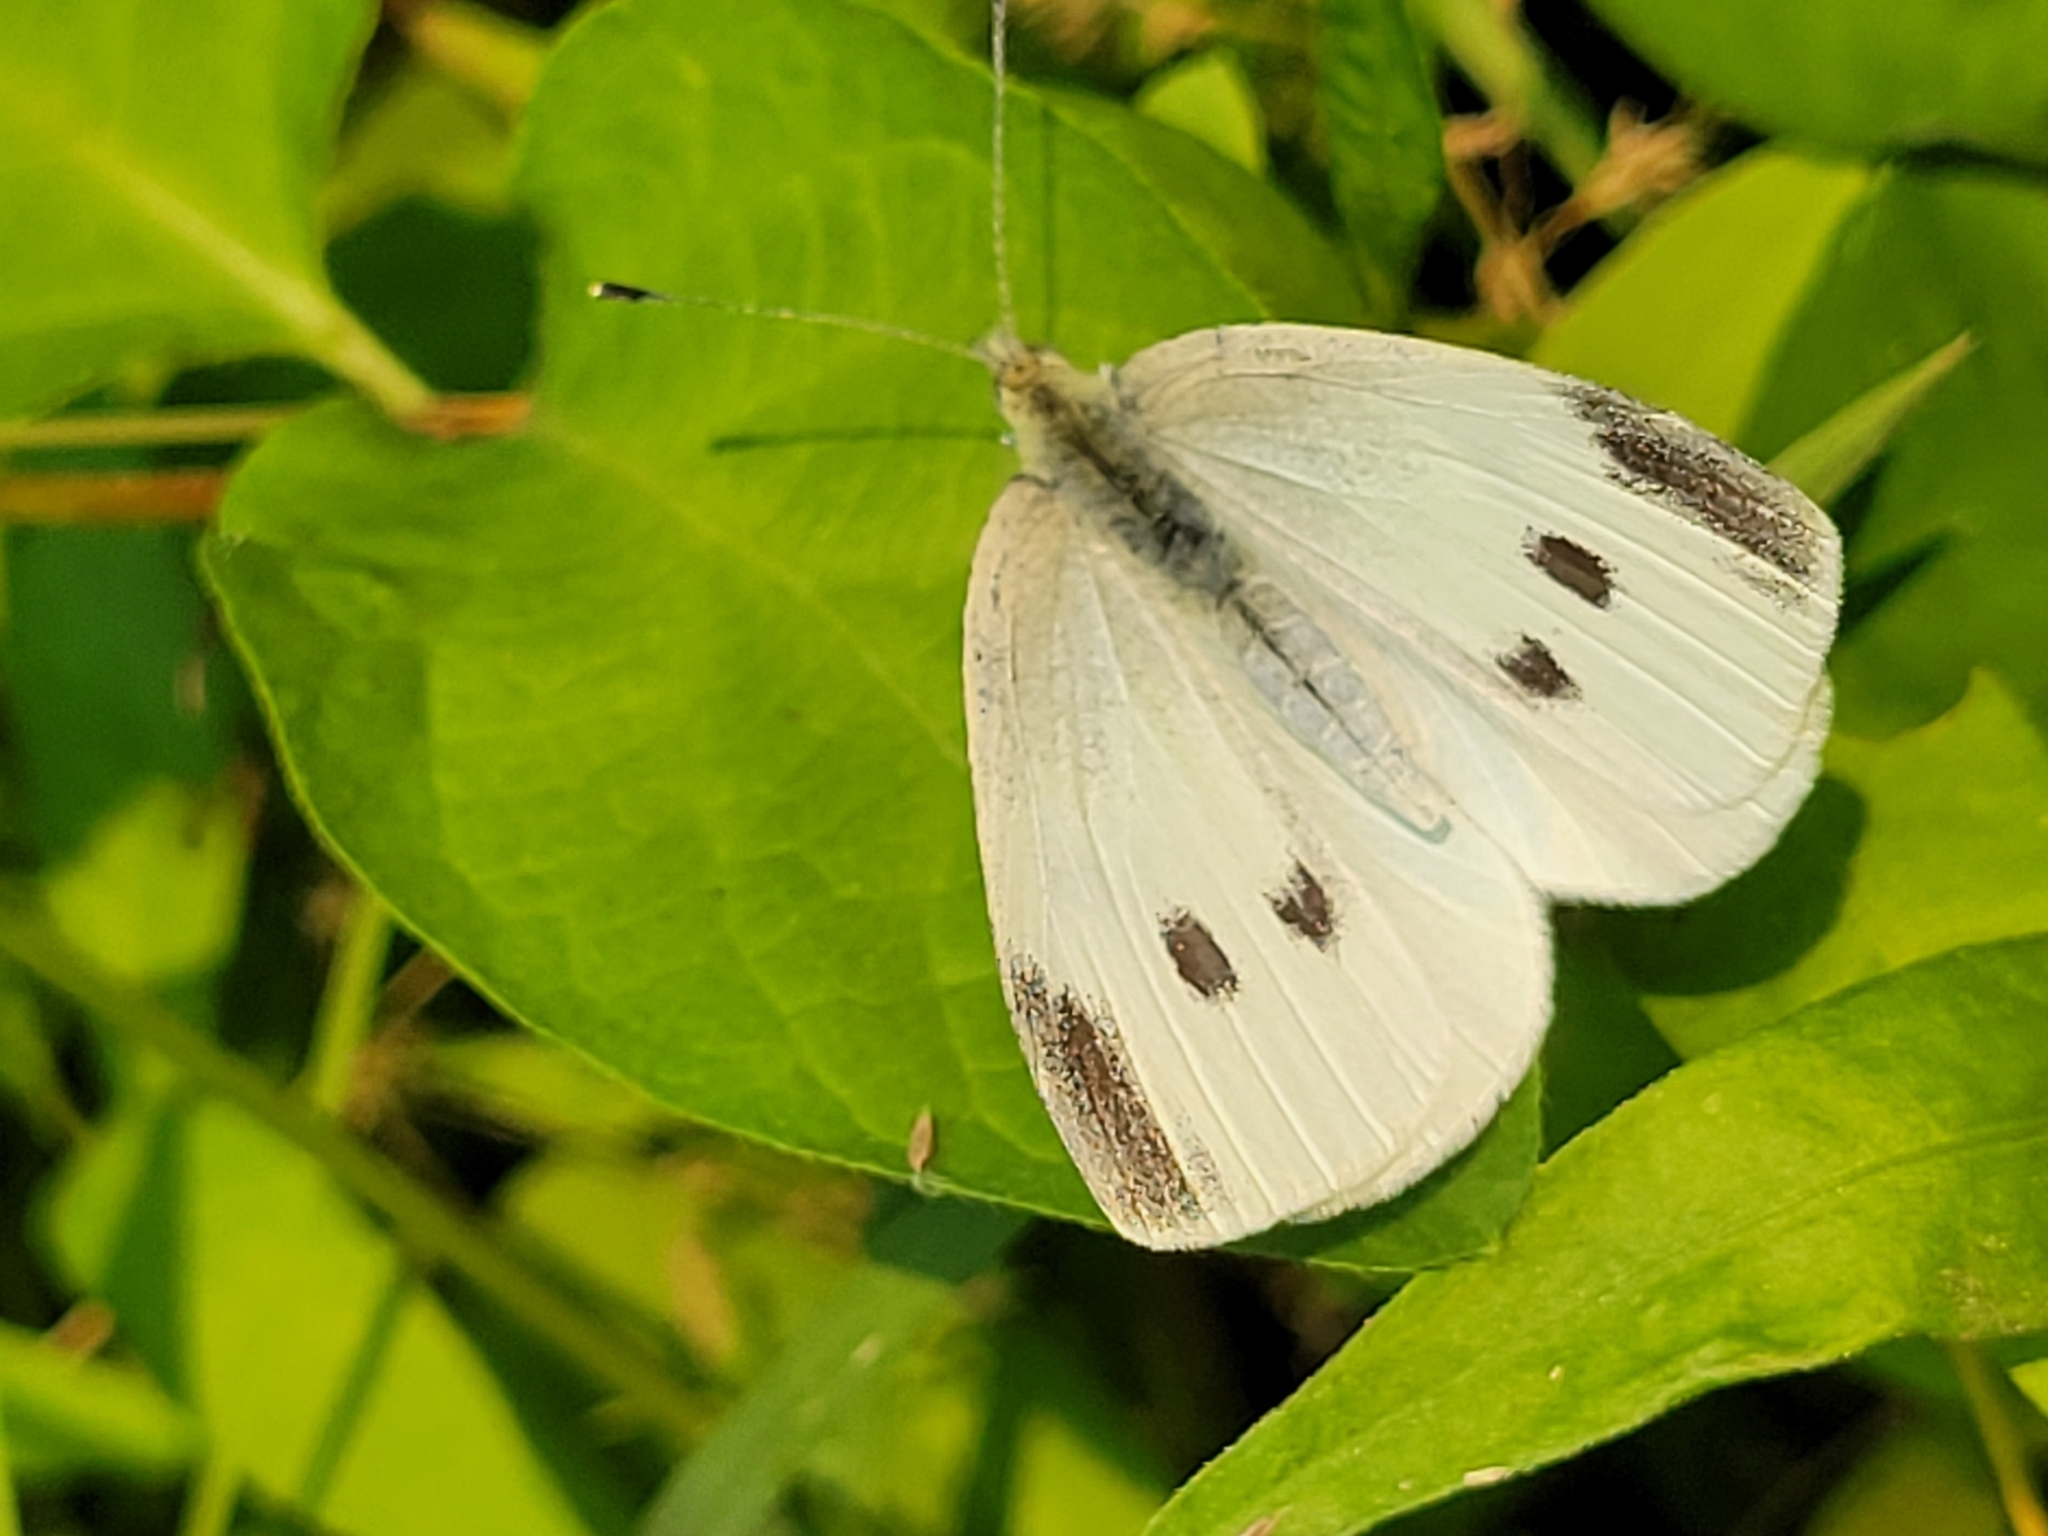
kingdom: Animalia
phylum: Arthropoda
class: Insecta
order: Lepidoptera
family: Pieridae
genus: Pieris
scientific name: Pieris rapae
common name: Small white
